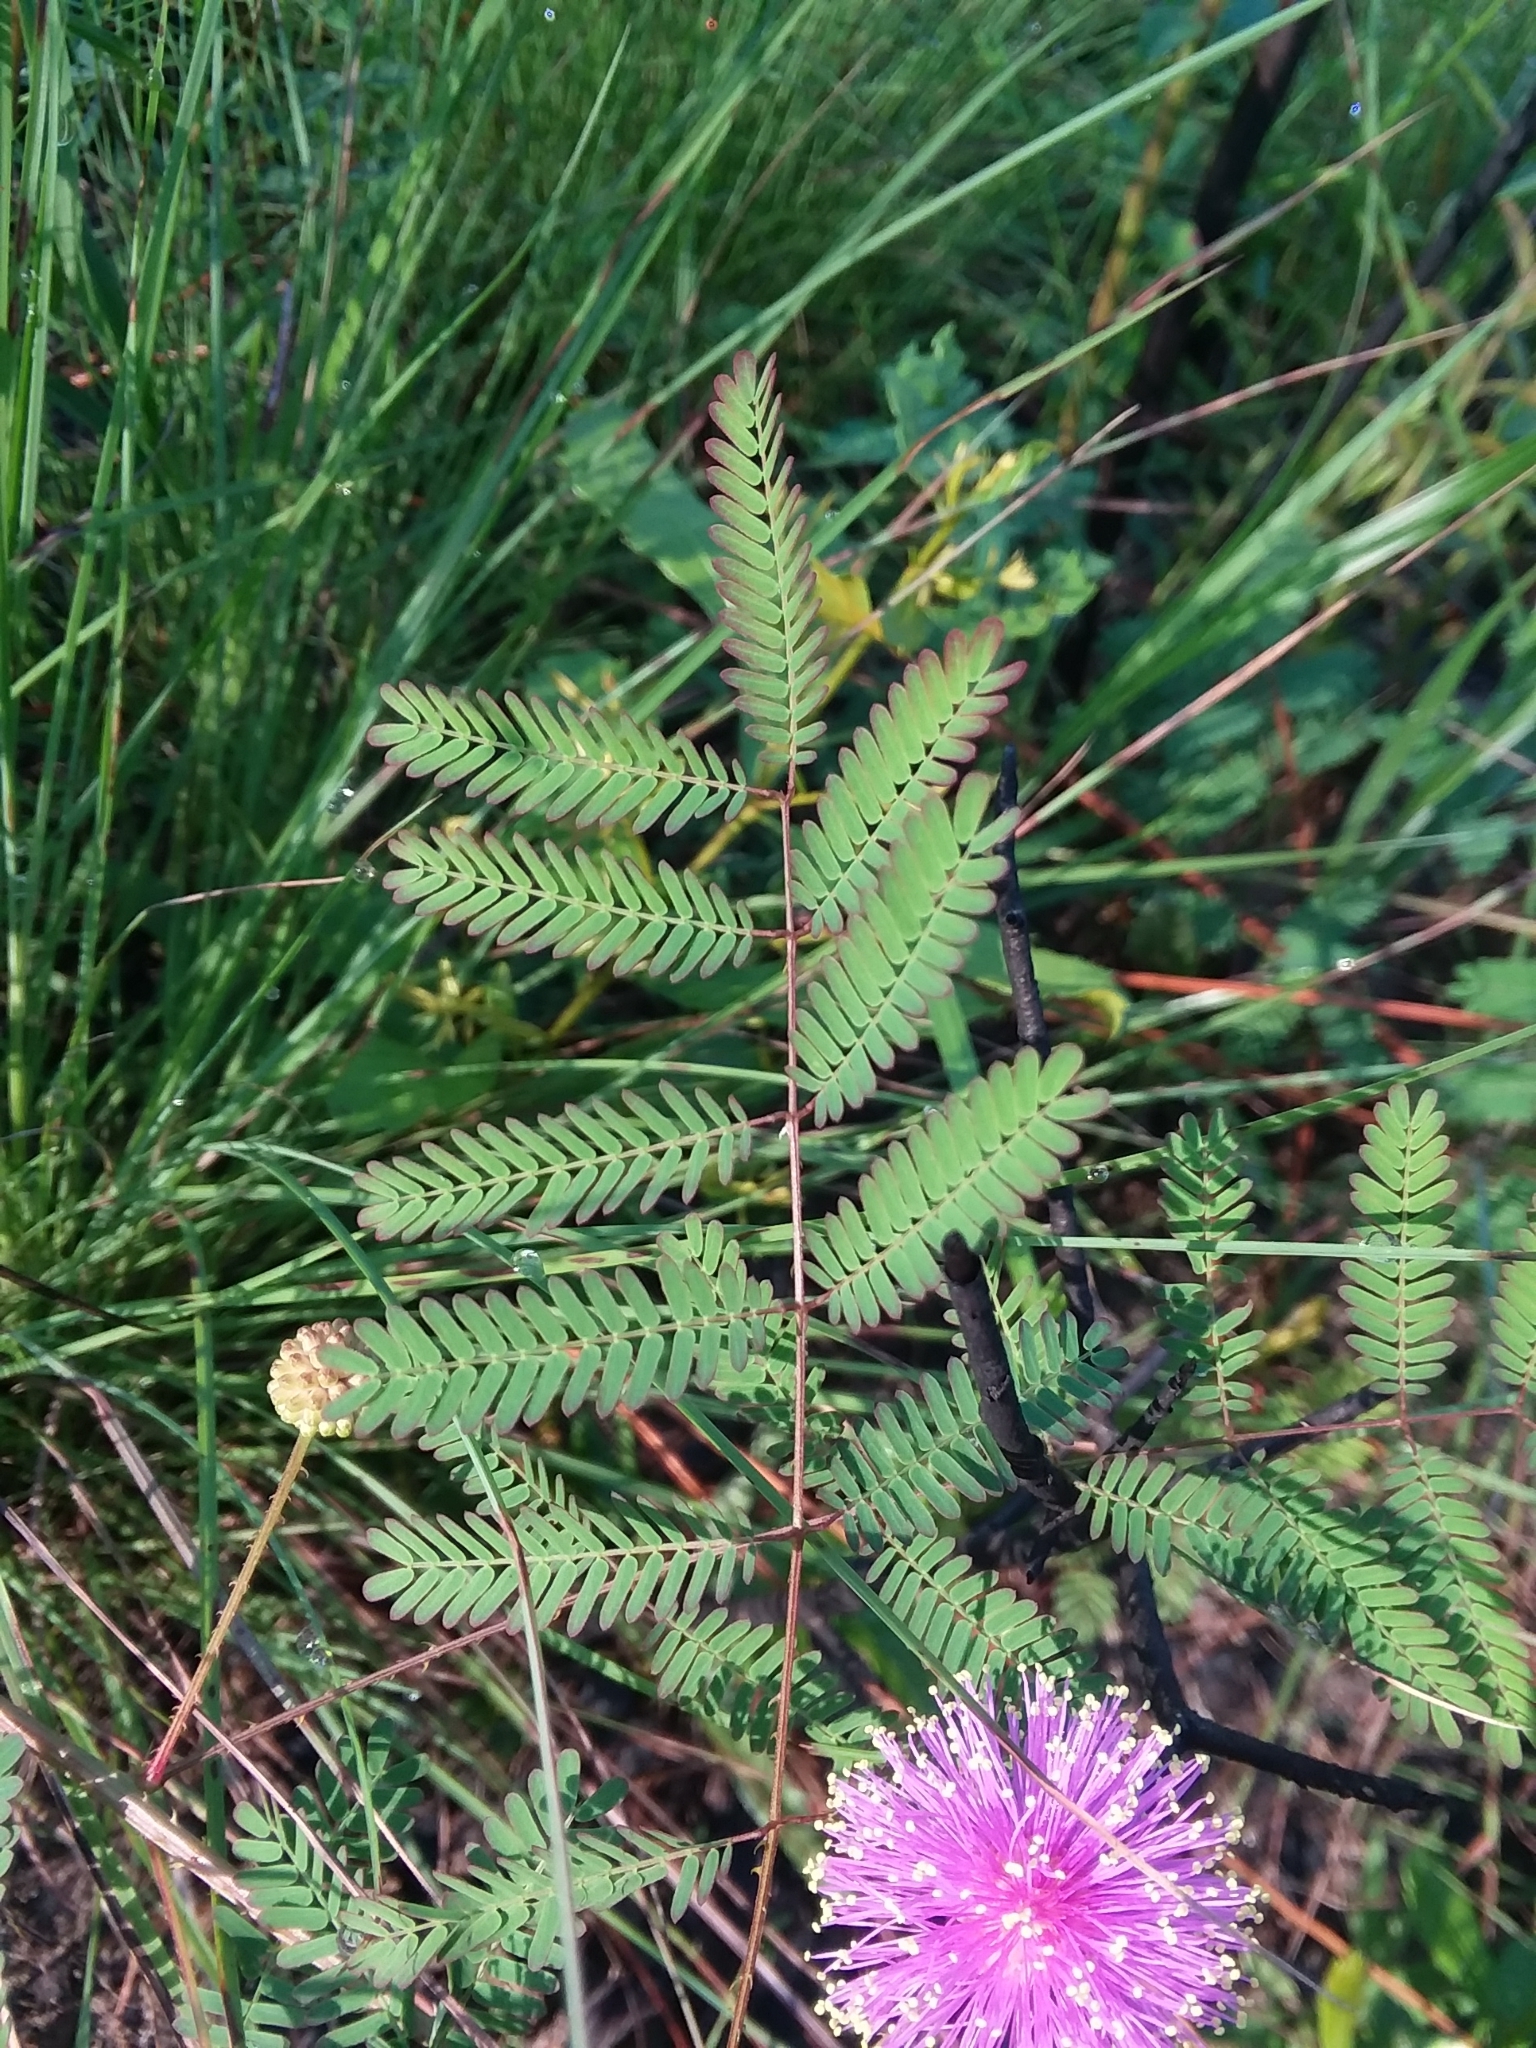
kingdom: Plantae
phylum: Tracheophyta
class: Magnoliopsida
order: Fabales
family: Fabaceae
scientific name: Fabaceae
